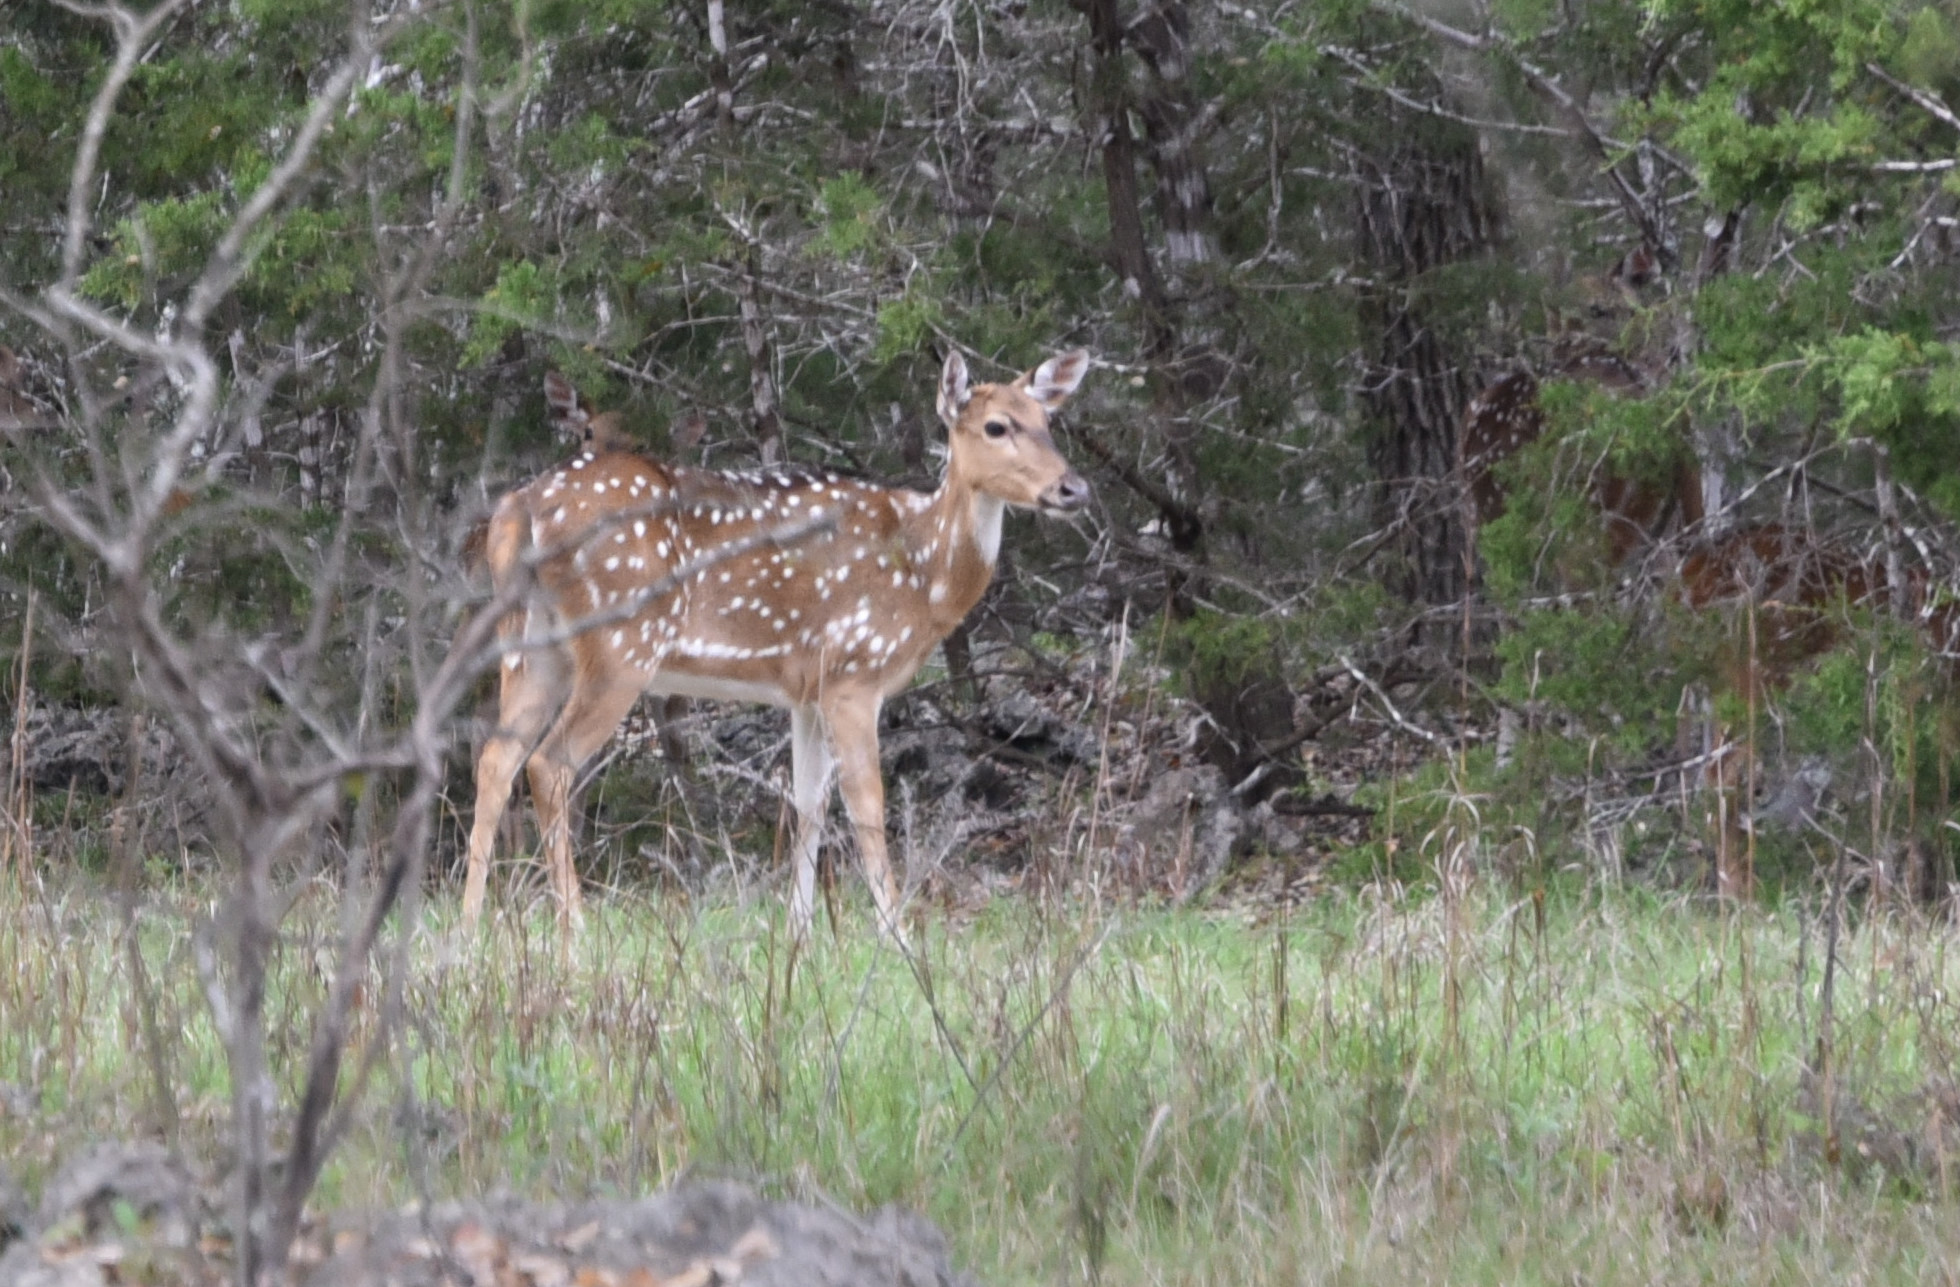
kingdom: Animalia
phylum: Chordata
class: Mammalia
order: Artiodactyla
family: Cervidae
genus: Axis
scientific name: Axis axis
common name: Chital
